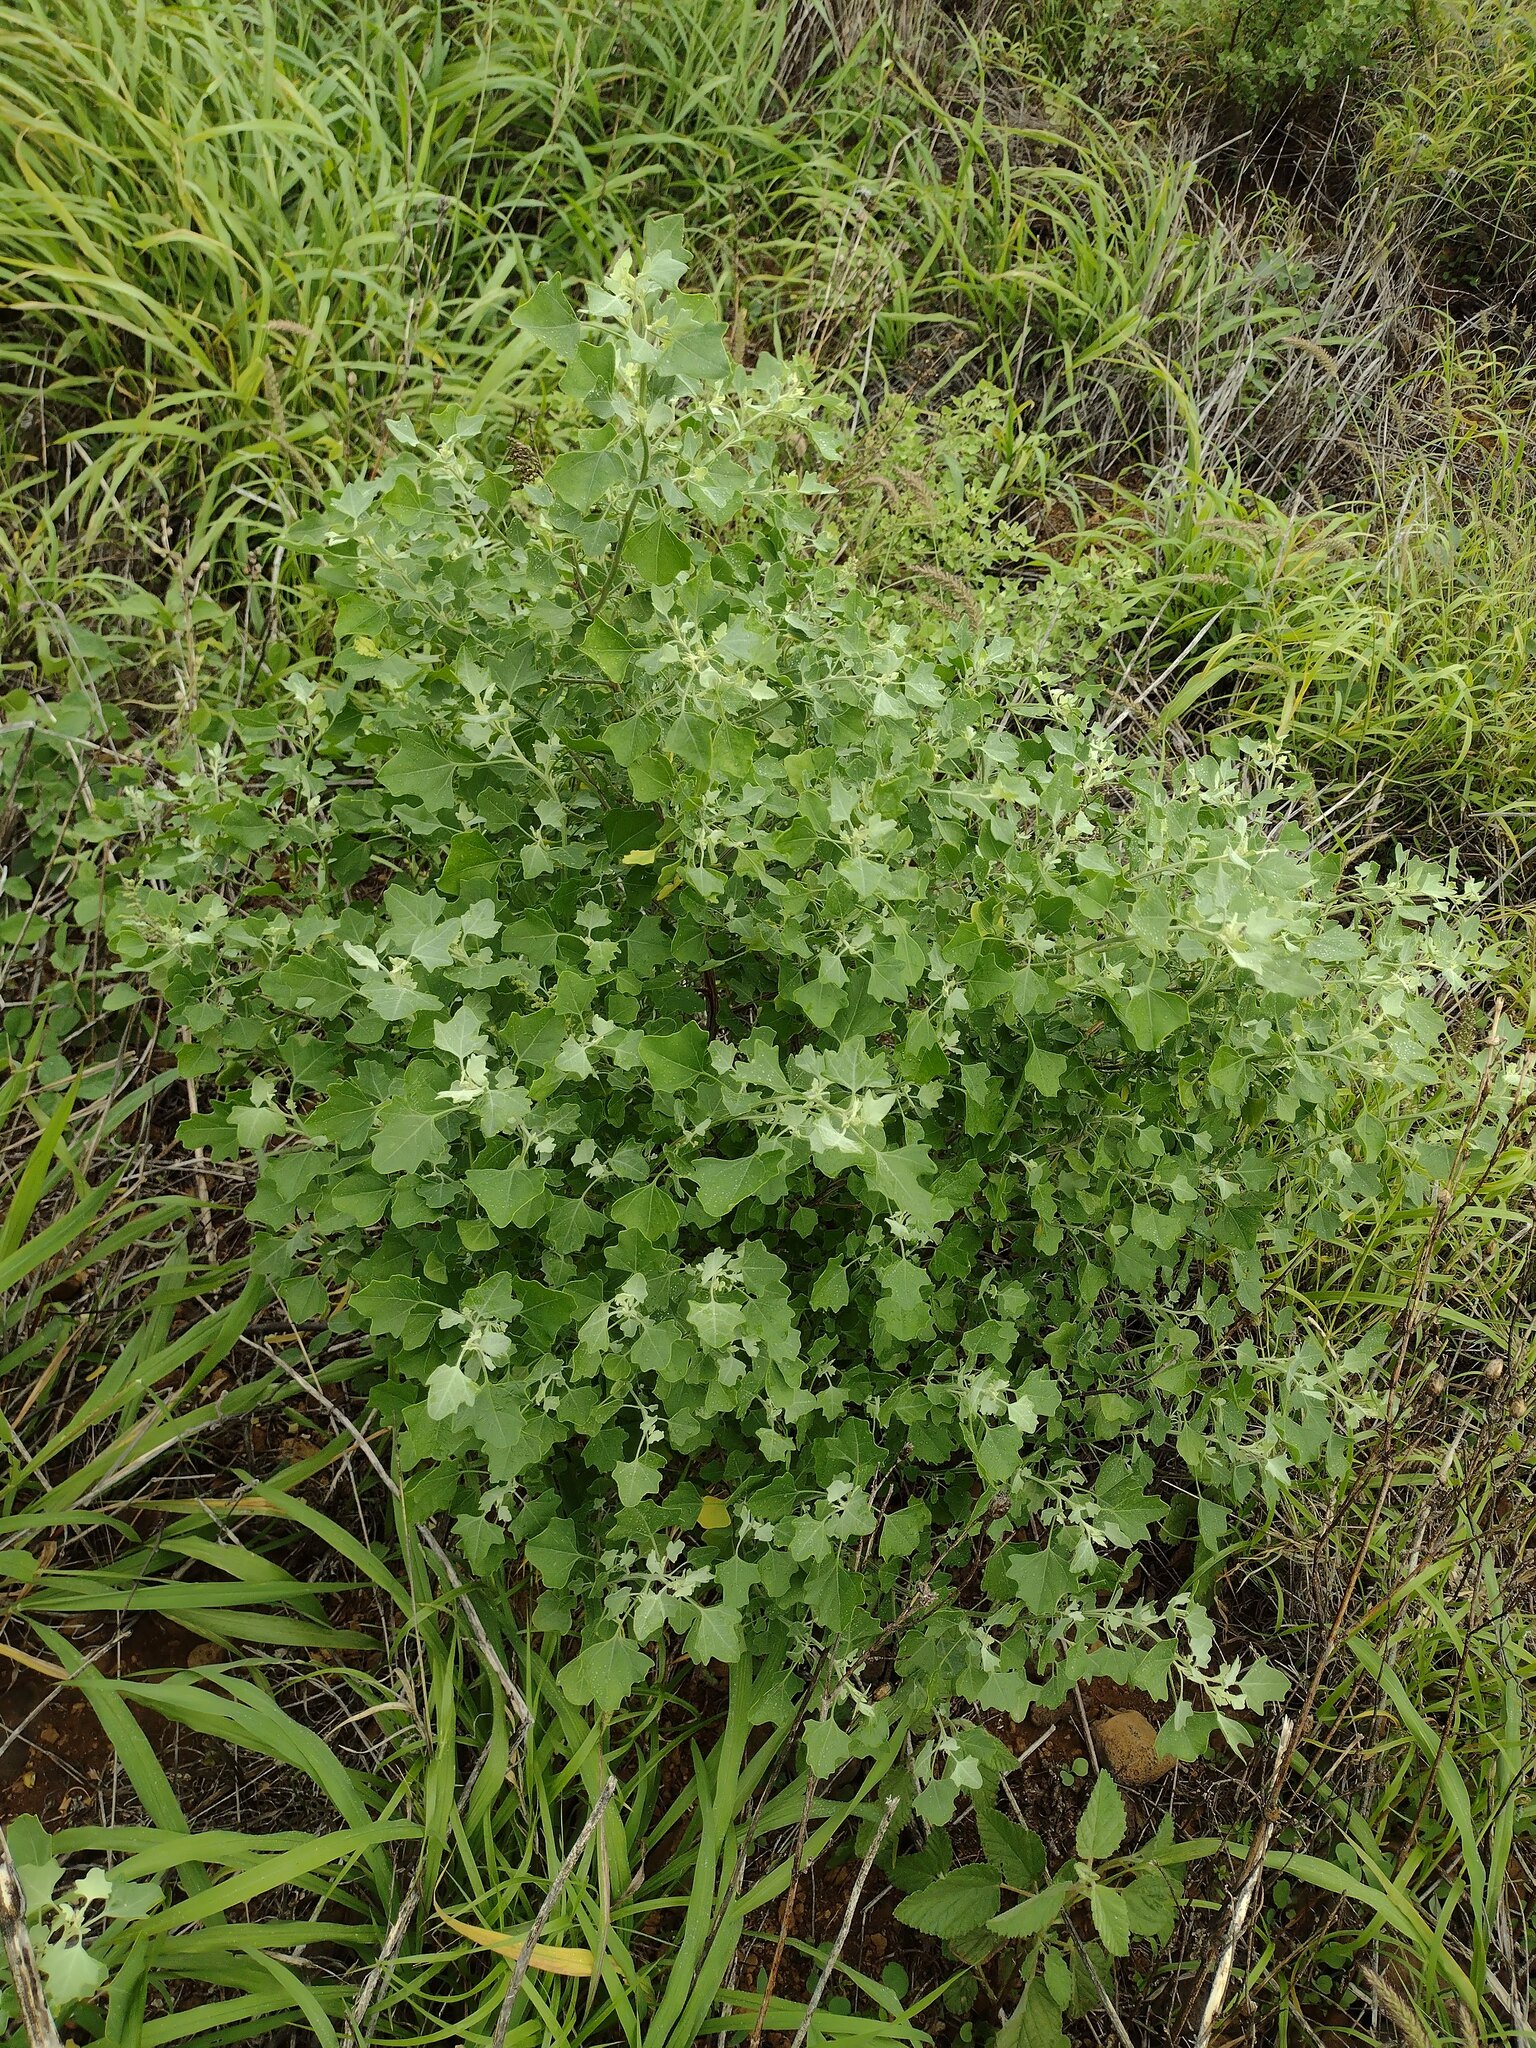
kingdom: Plantae
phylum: Tracheophyta
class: Magnoliopsida
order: Caryophyllales
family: Amaranthaceae
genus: Chenopodium
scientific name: Chenopodium oahuense
